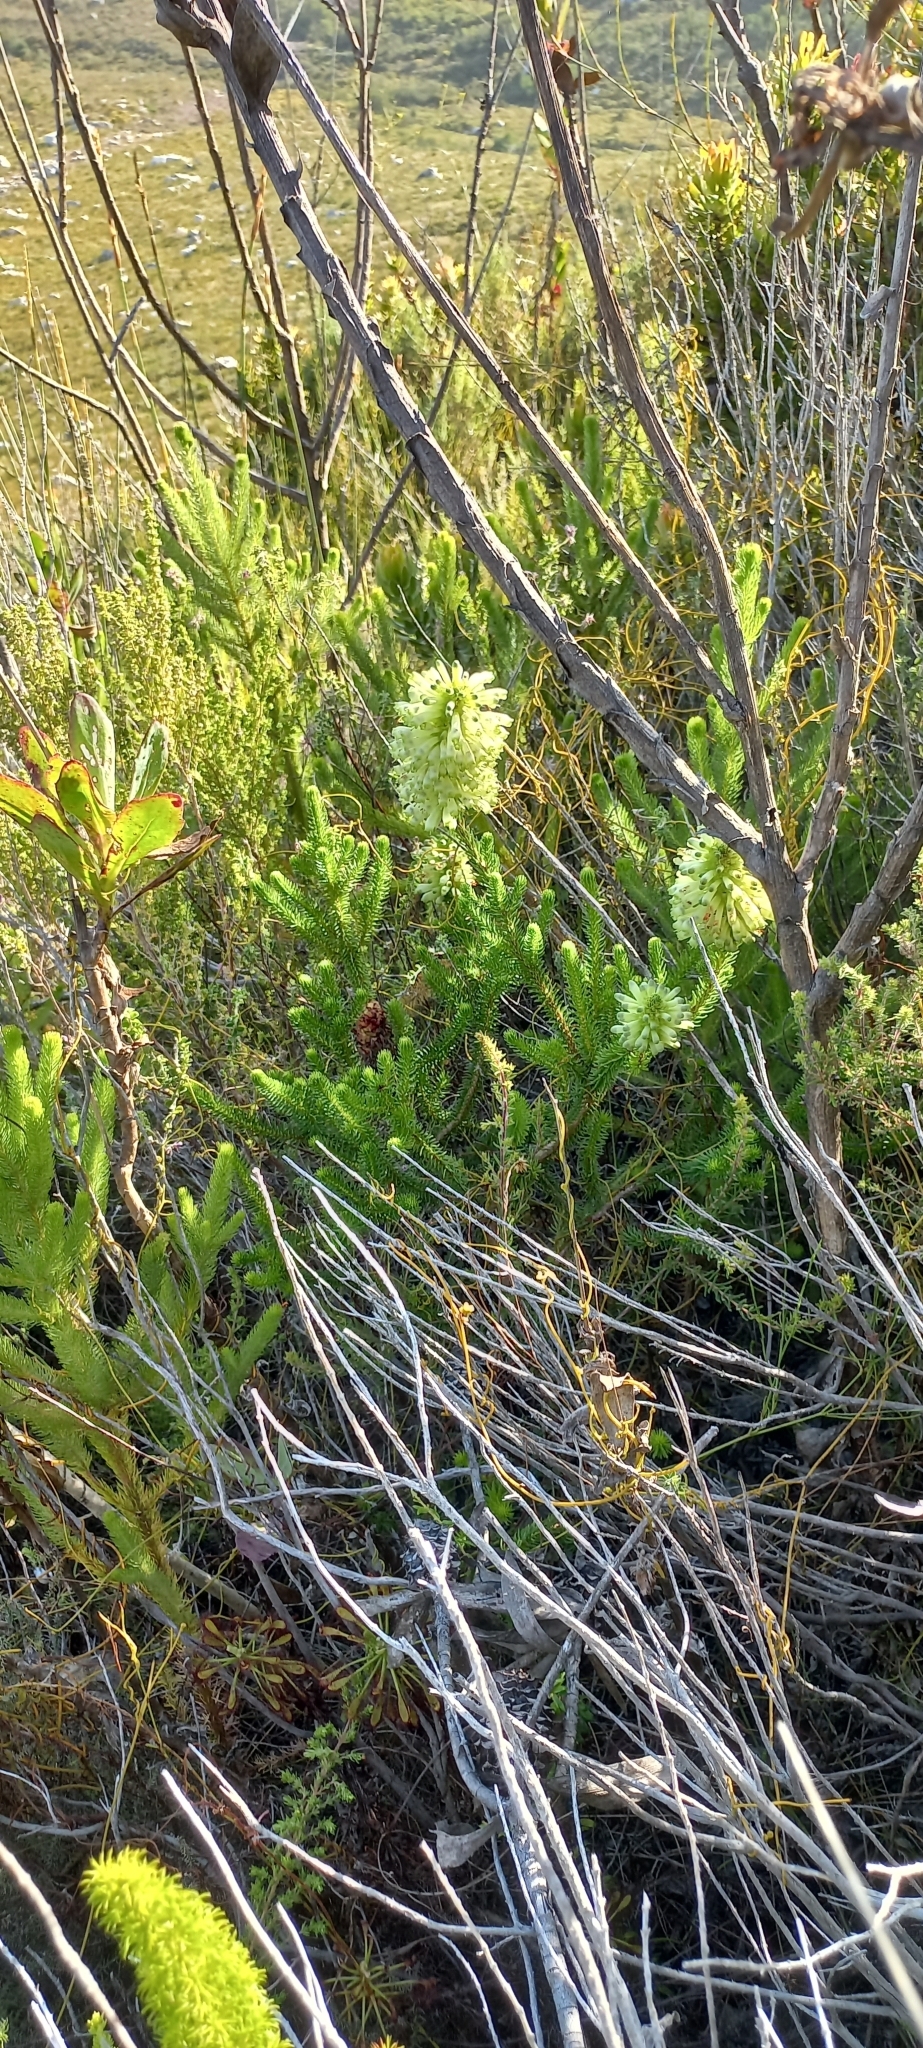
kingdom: Plantae
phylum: Tracheophyta
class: Magnoliopsida
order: Ericales
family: Ericaceae
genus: Erica
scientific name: Erica sessiliflora
